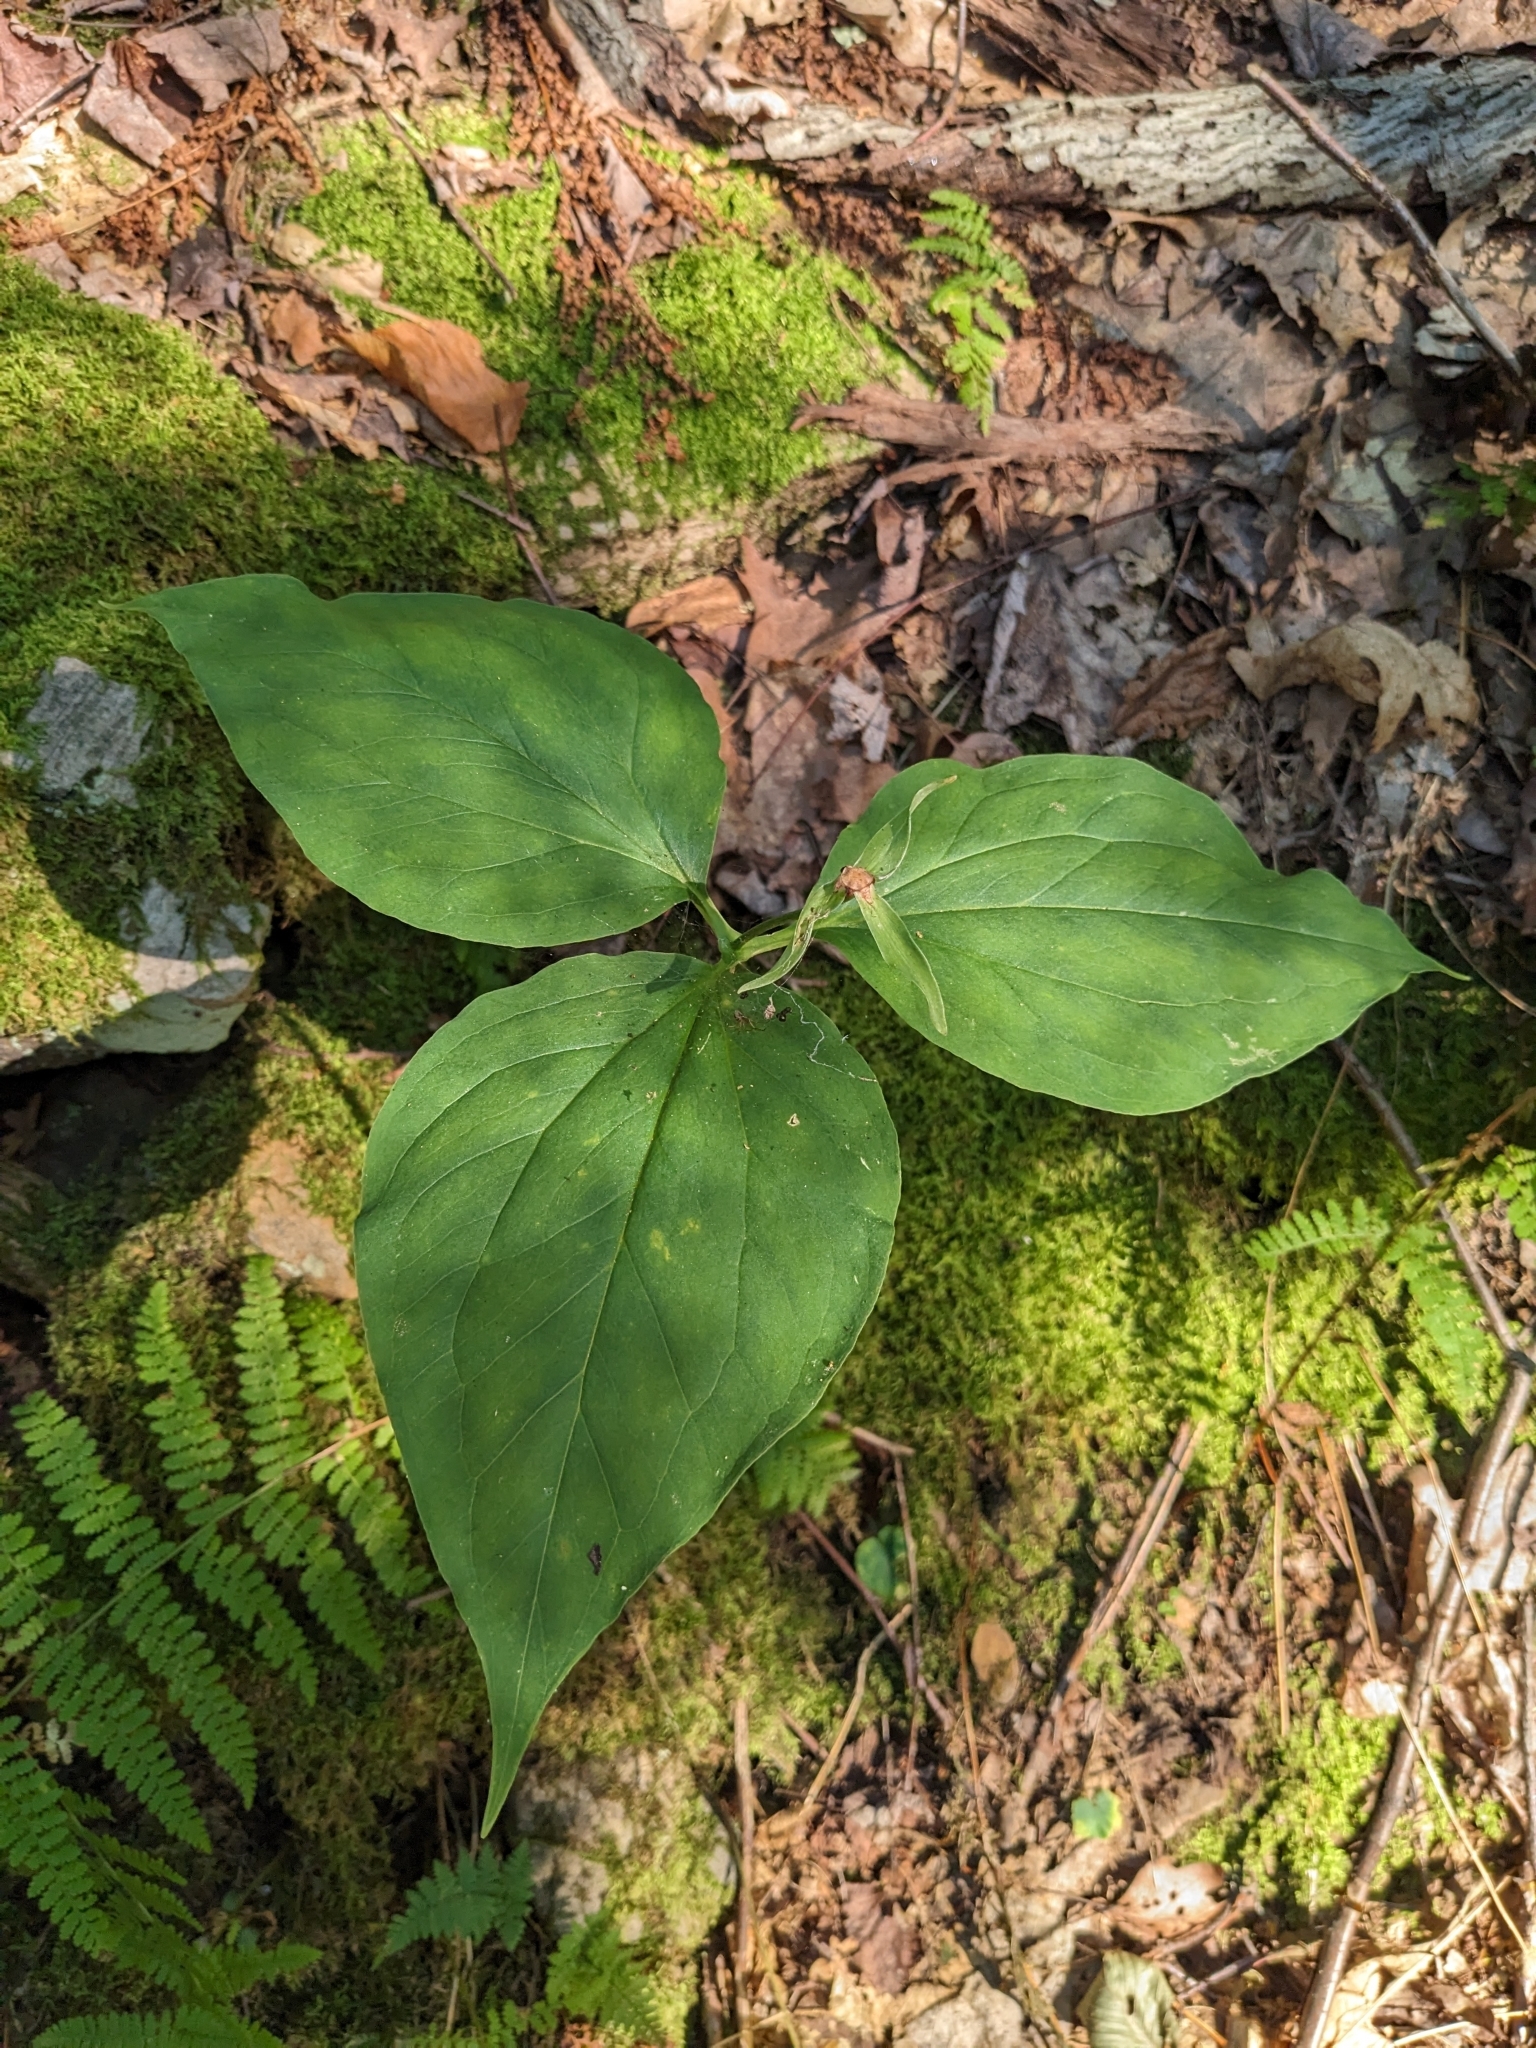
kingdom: Plantae
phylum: Tracheophyta
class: Liliopsida
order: Liliales
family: Melanthiaceae
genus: Trillium
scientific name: Trillium undulatum
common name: Paint trillium
